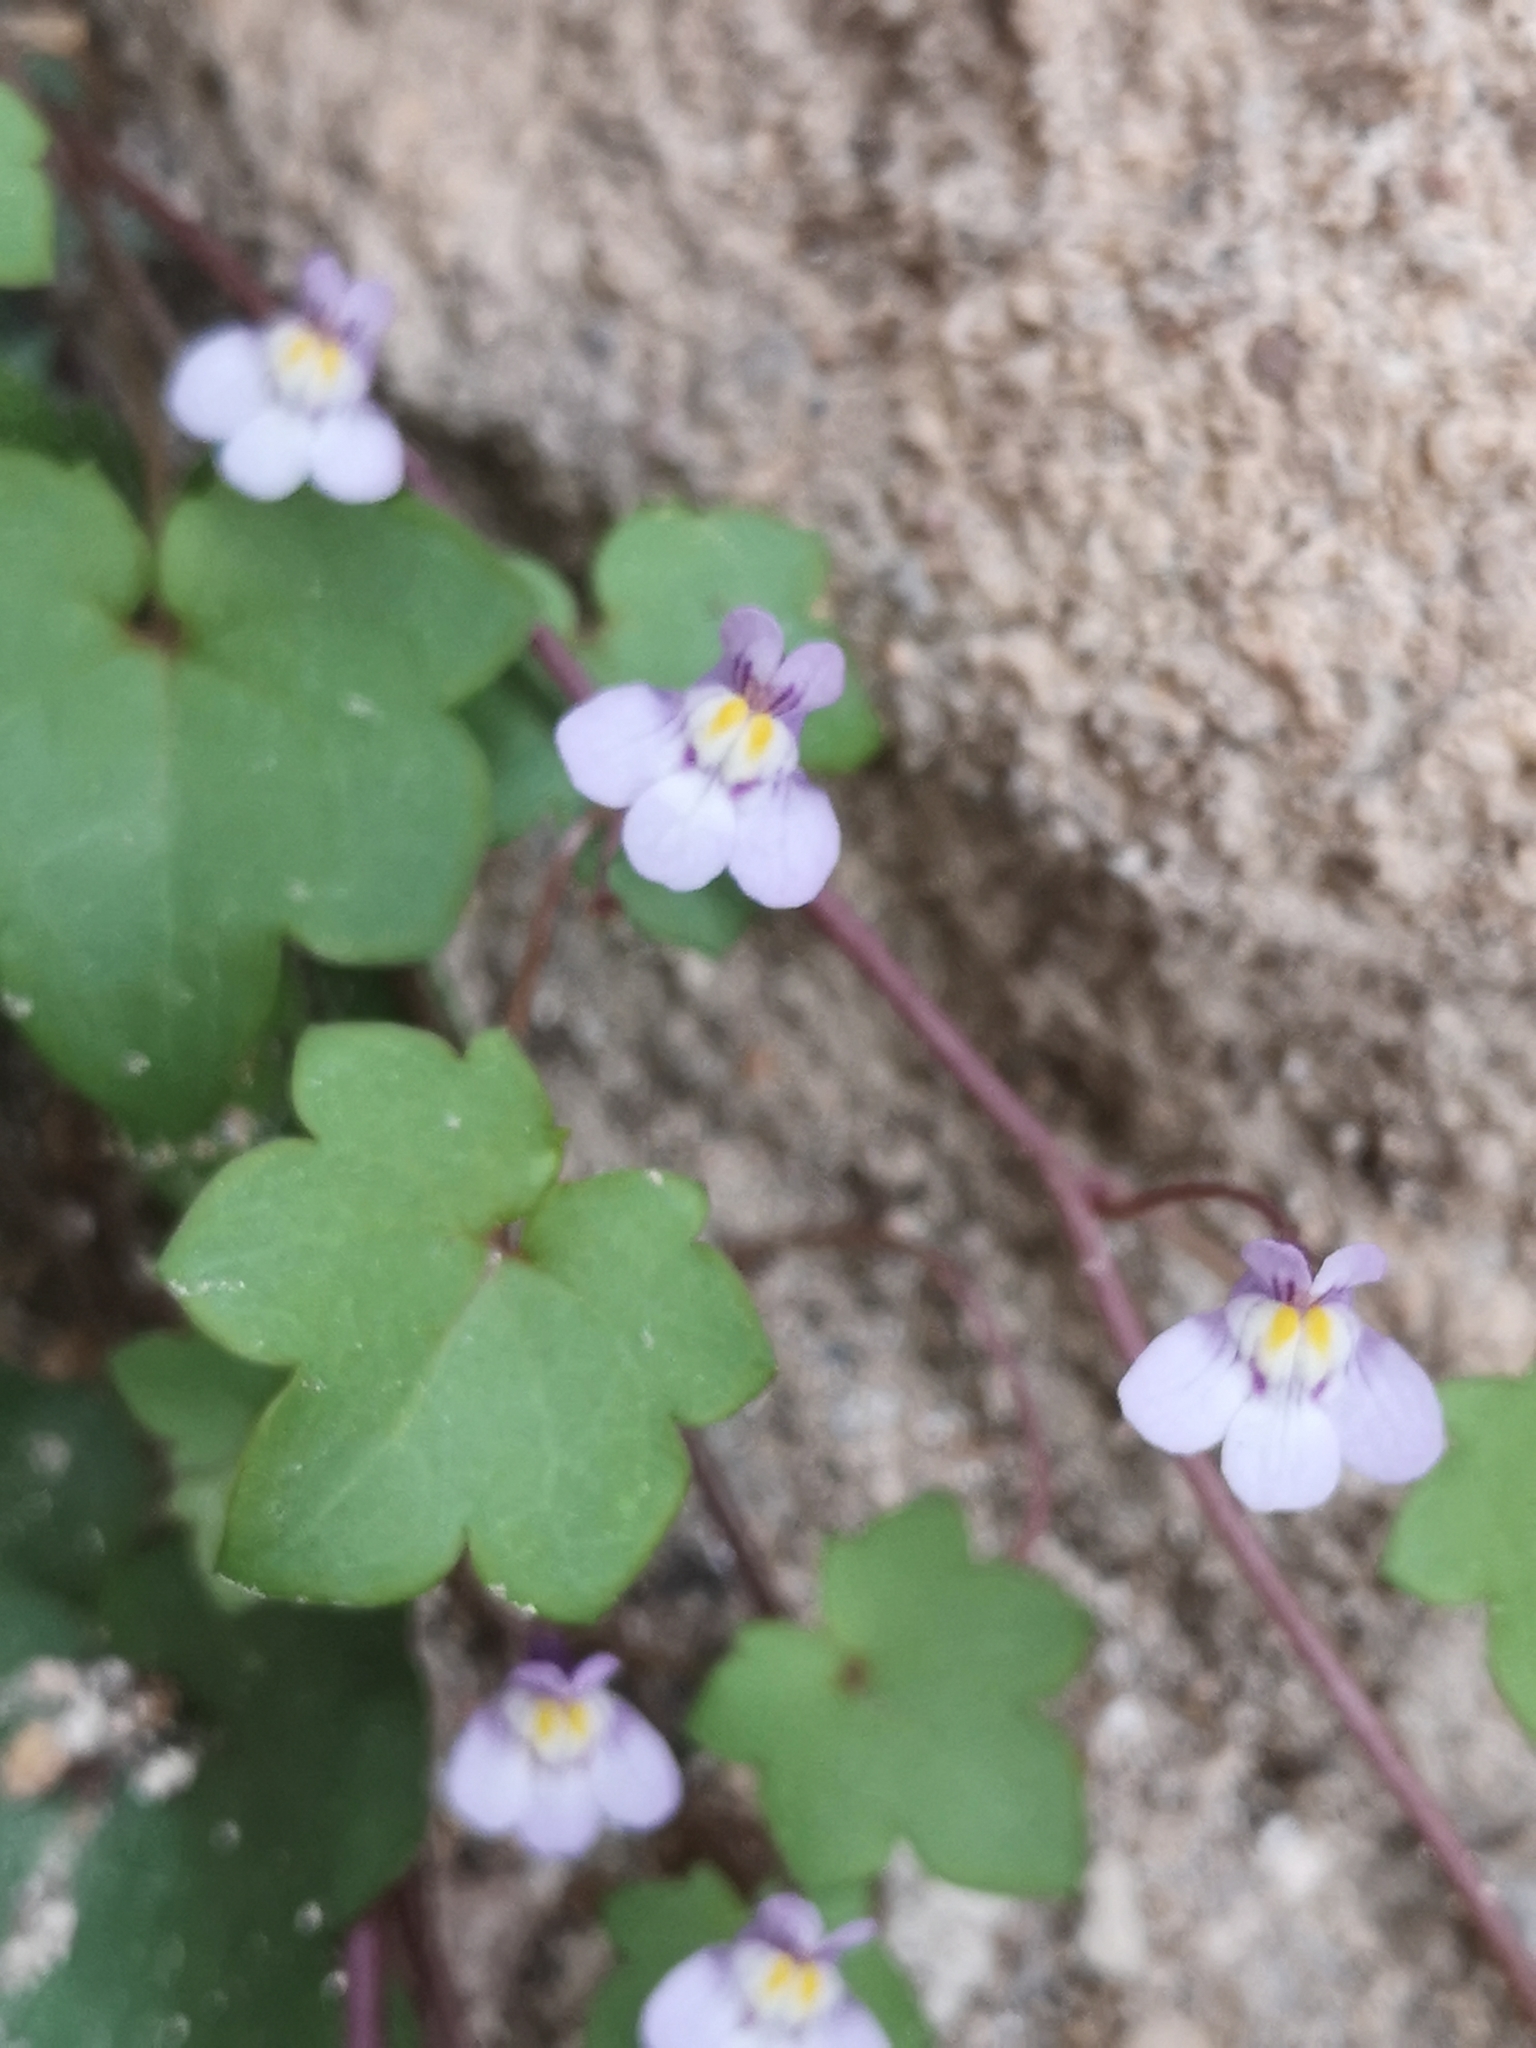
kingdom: Plantae
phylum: Tracheophyta
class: Magnoliopsida
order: Lamiales
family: Plantaginaceae
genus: Cymbalaria
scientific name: Cymbalaria muralis
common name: Ivy-leaved toadflax
